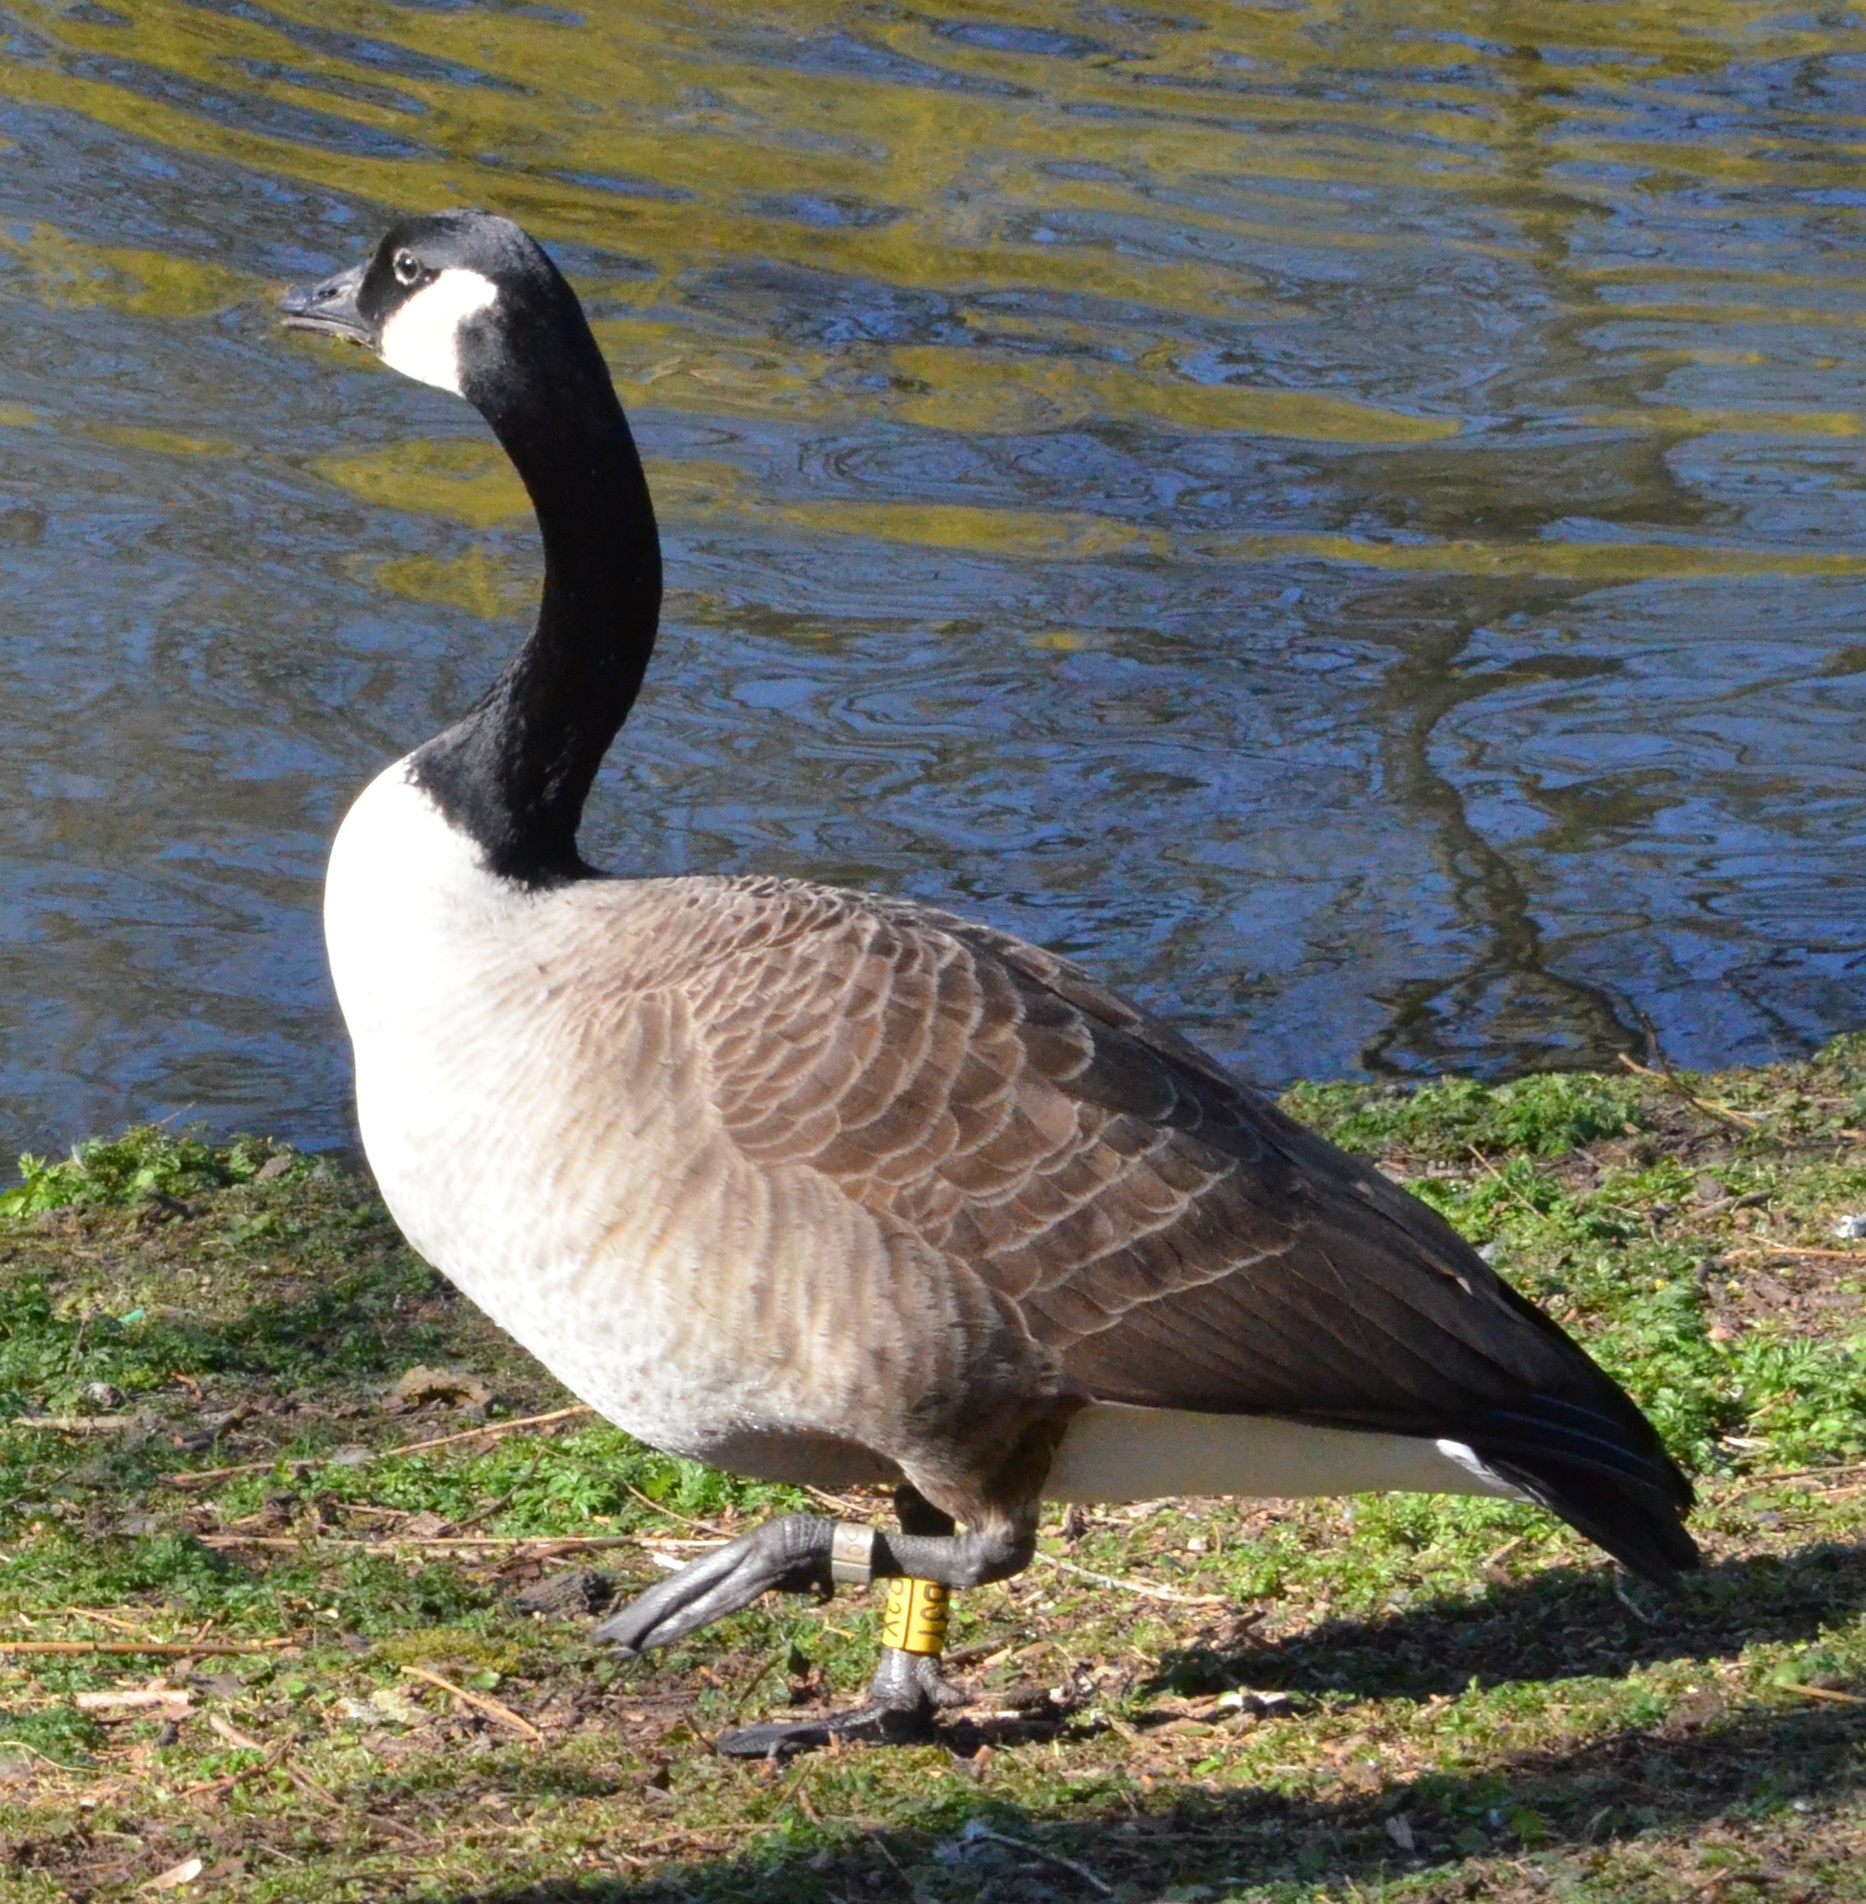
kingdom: Animalia
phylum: Chordata
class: Aves
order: Anseriformes
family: Anatidae
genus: Branta
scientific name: Branta canadensis
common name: Canada goose
